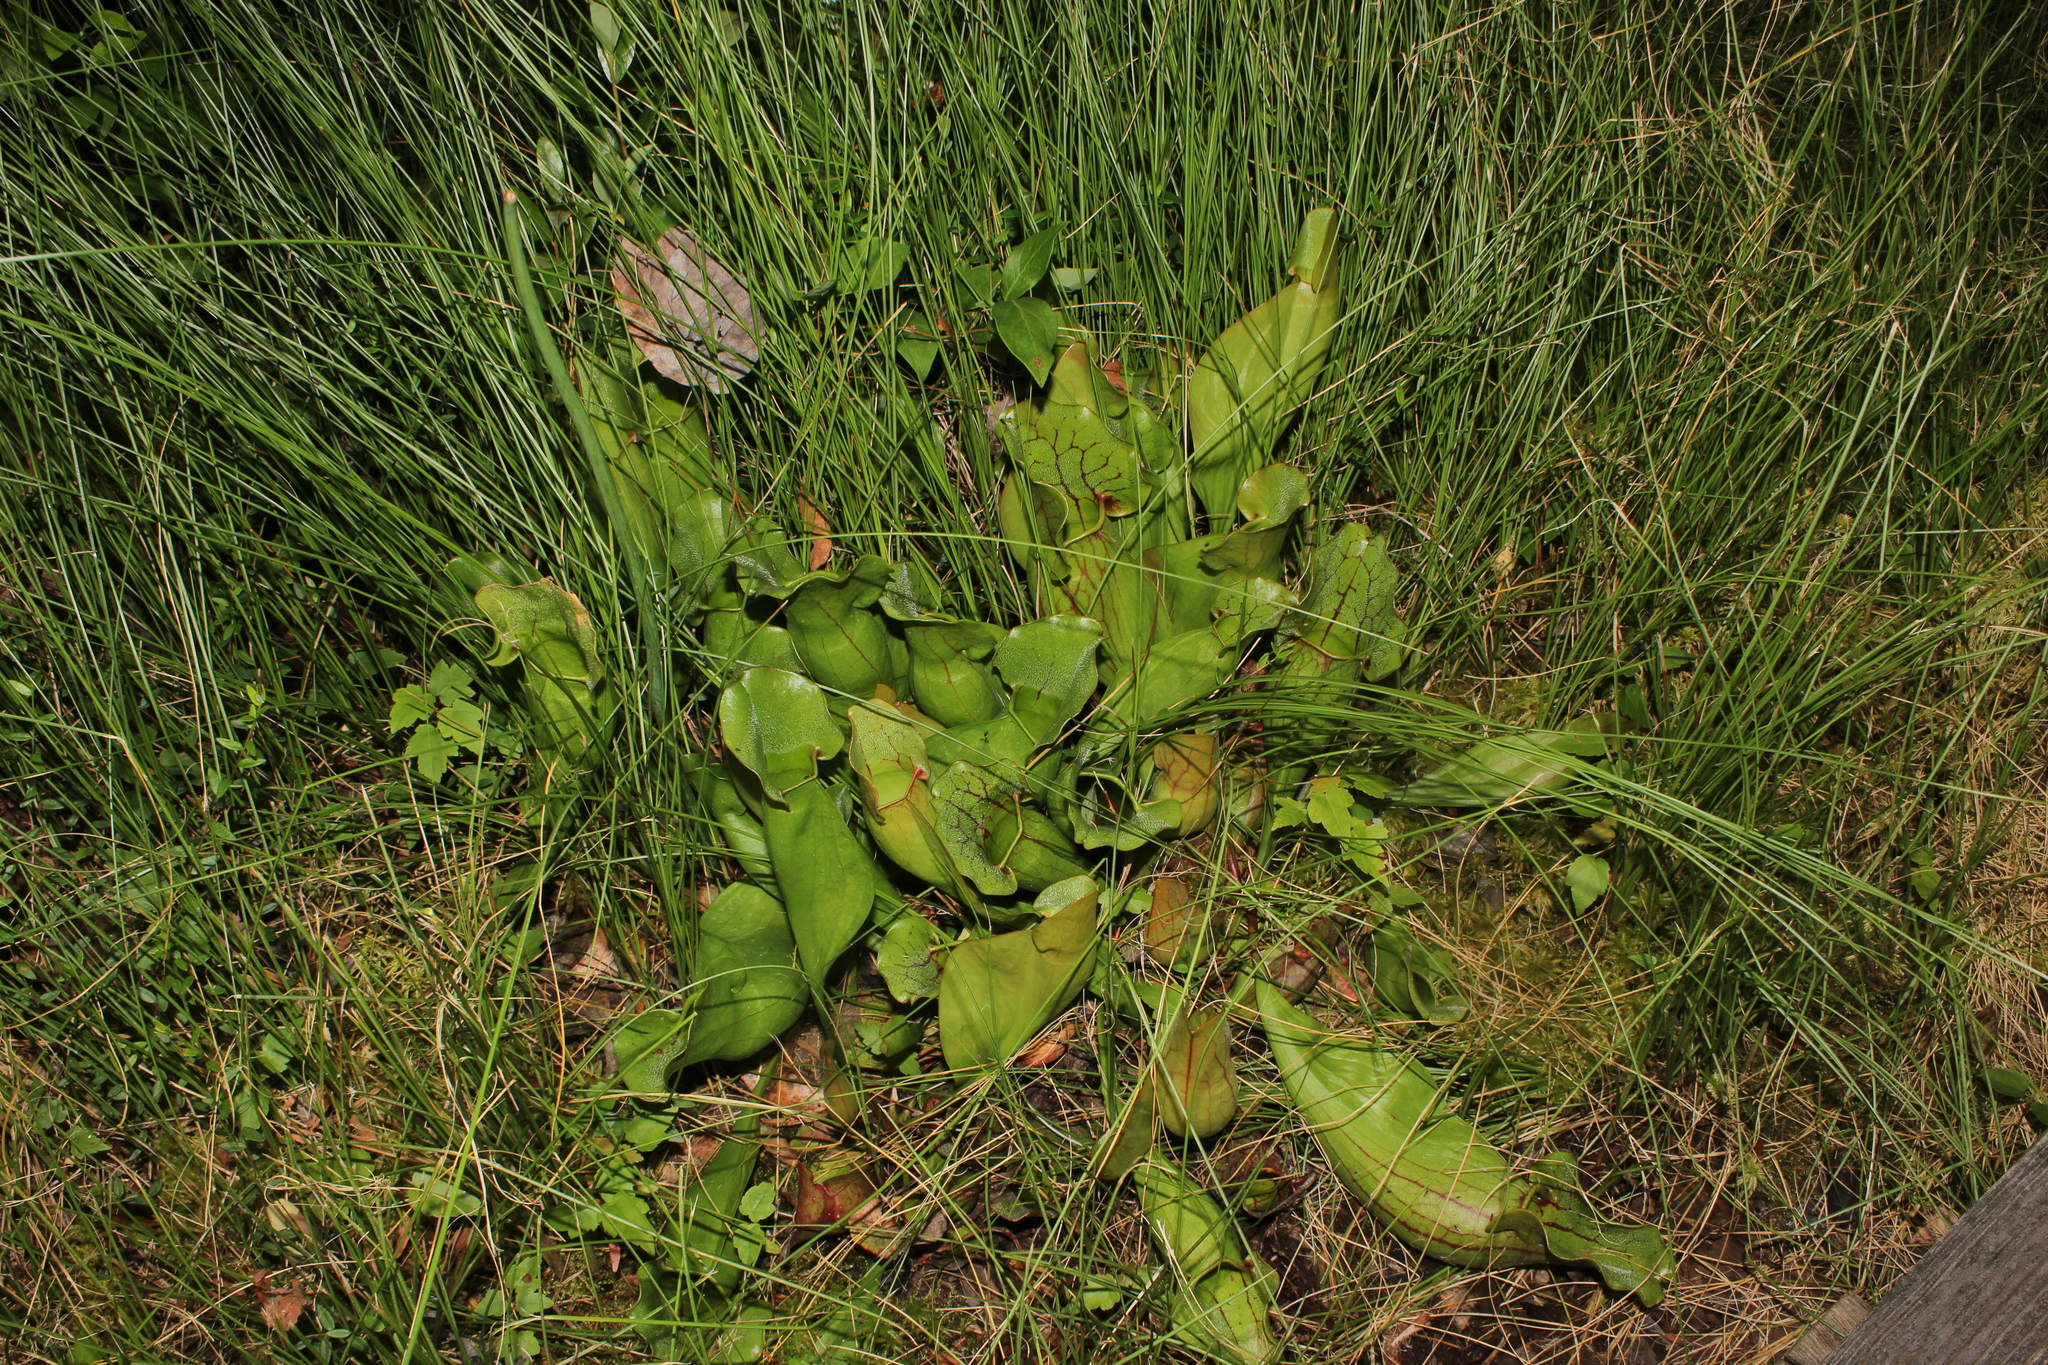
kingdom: Plantae
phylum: Tracheophyta
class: Magnoliopsida
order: Ericales
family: Sarraceniaceae
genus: Sarracenia
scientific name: Sarracenia purpurea
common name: Pitcherplant
